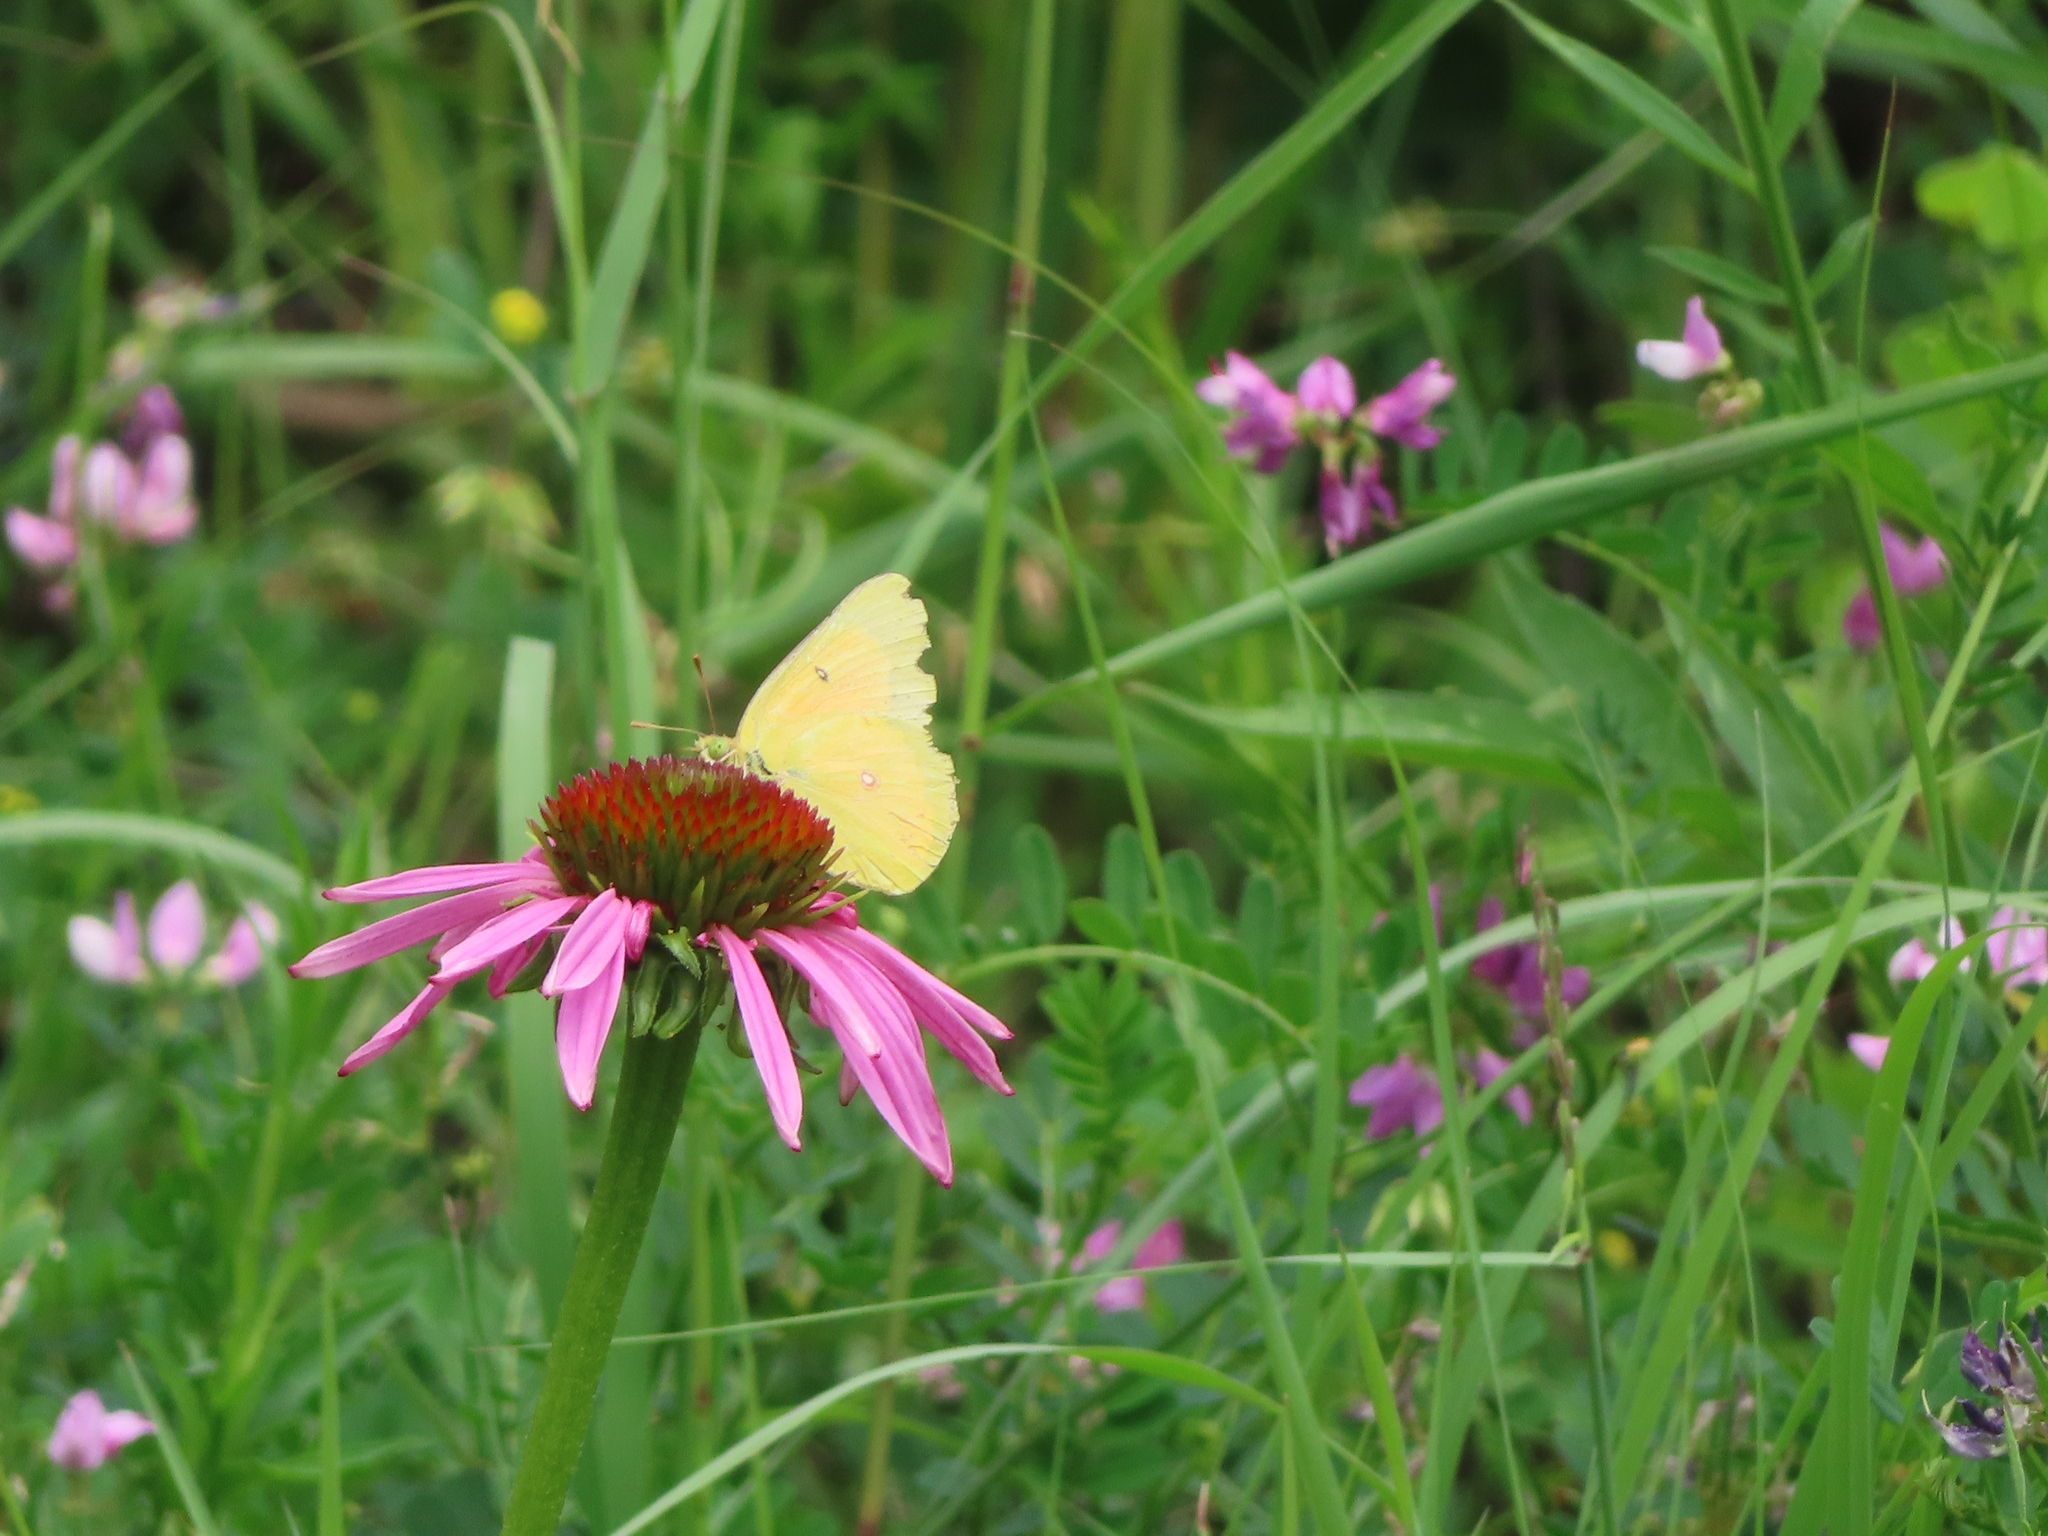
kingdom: Animalia
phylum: Arthropoda
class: Insecta
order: Lepidoptera
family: Pieridae
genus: Colias
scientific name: Colias eurytheme
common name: Alfalfa butterfly
